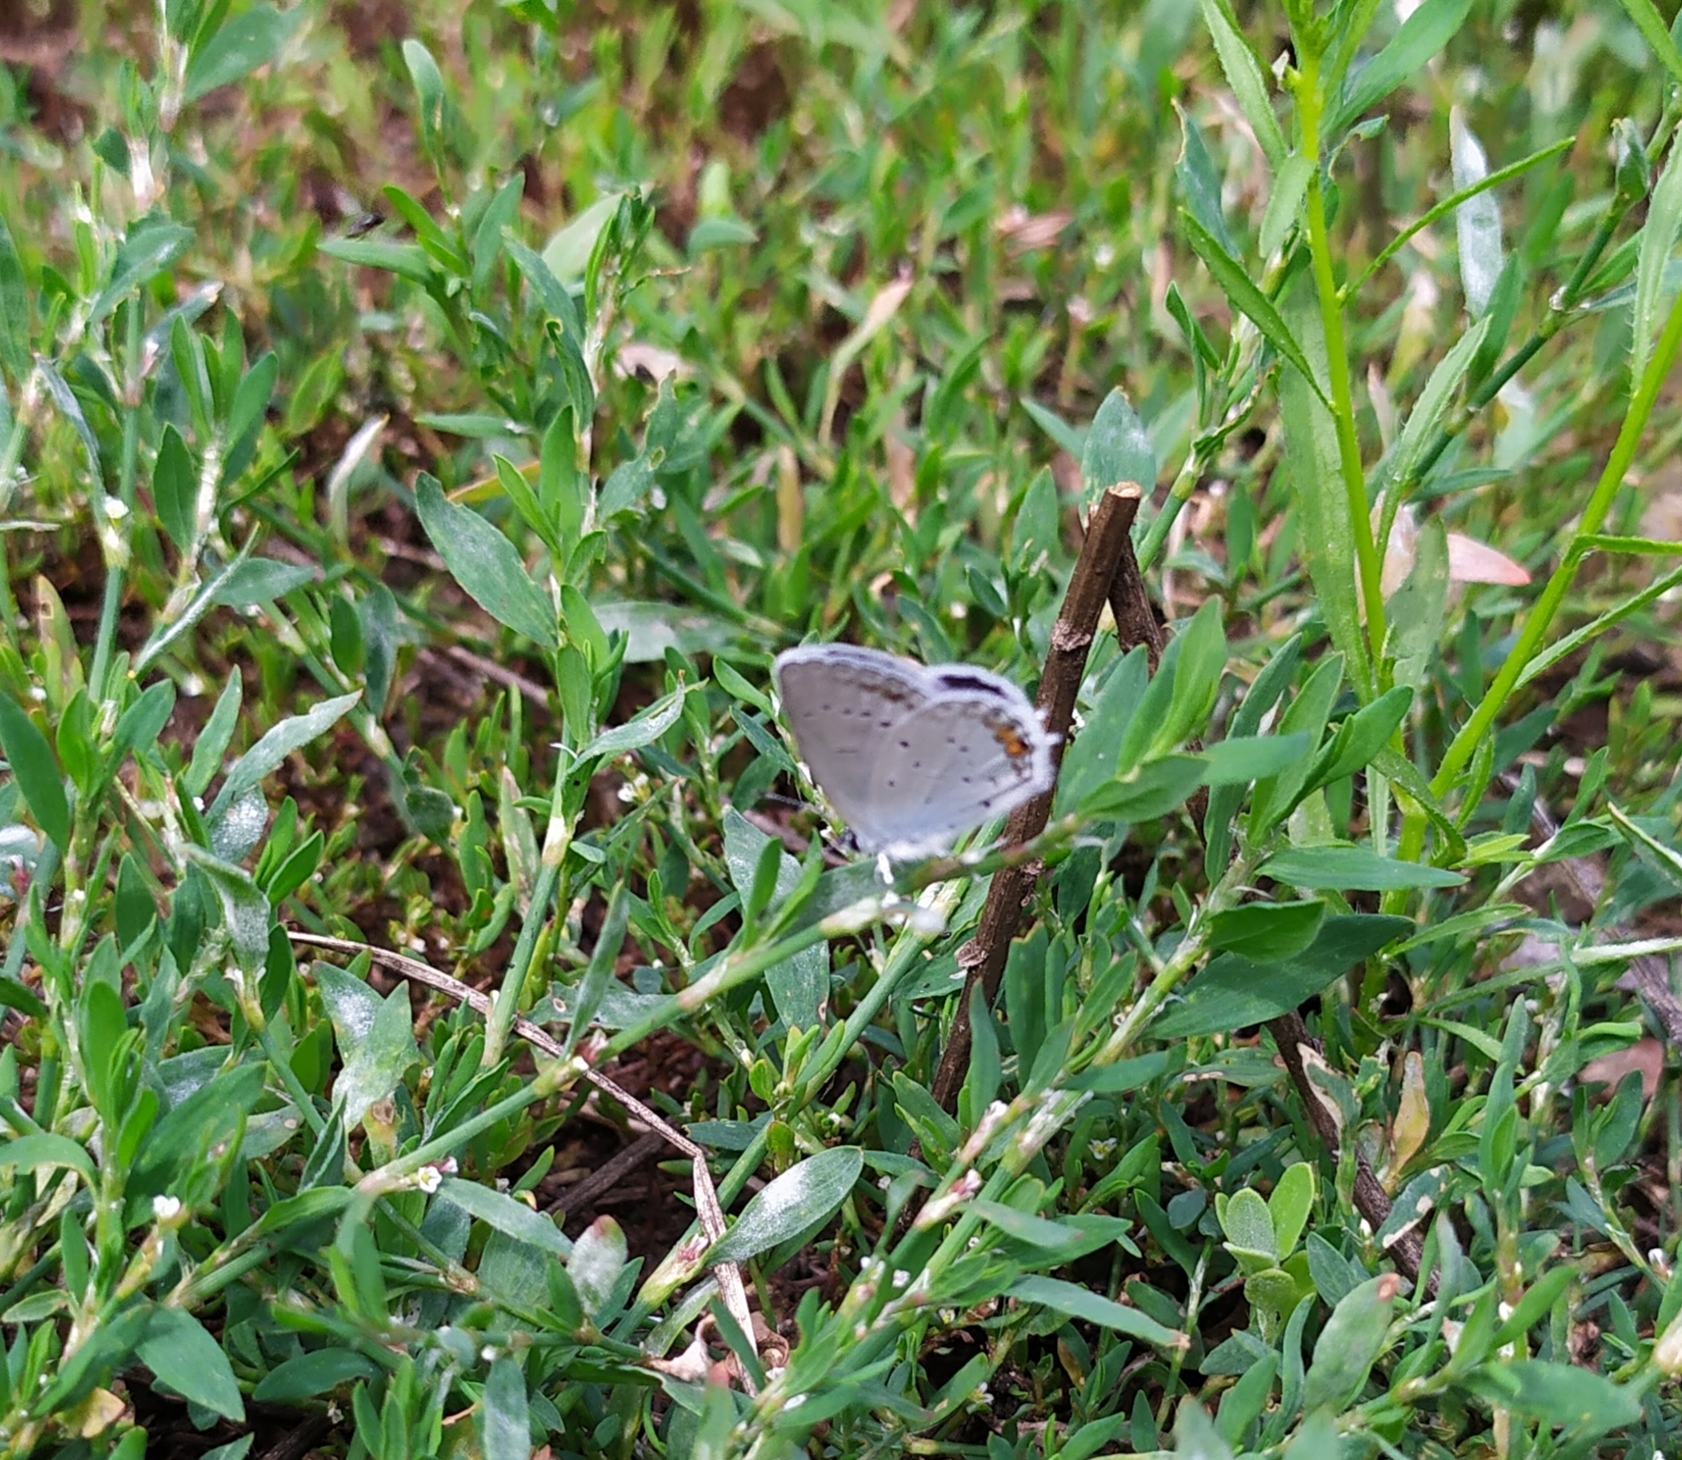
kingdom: Animalia
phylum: Arthropoda
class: Insecta
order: Lepidoptera
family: Lycaenidae
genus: Elkalyce
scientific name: Elkalyce argiades
